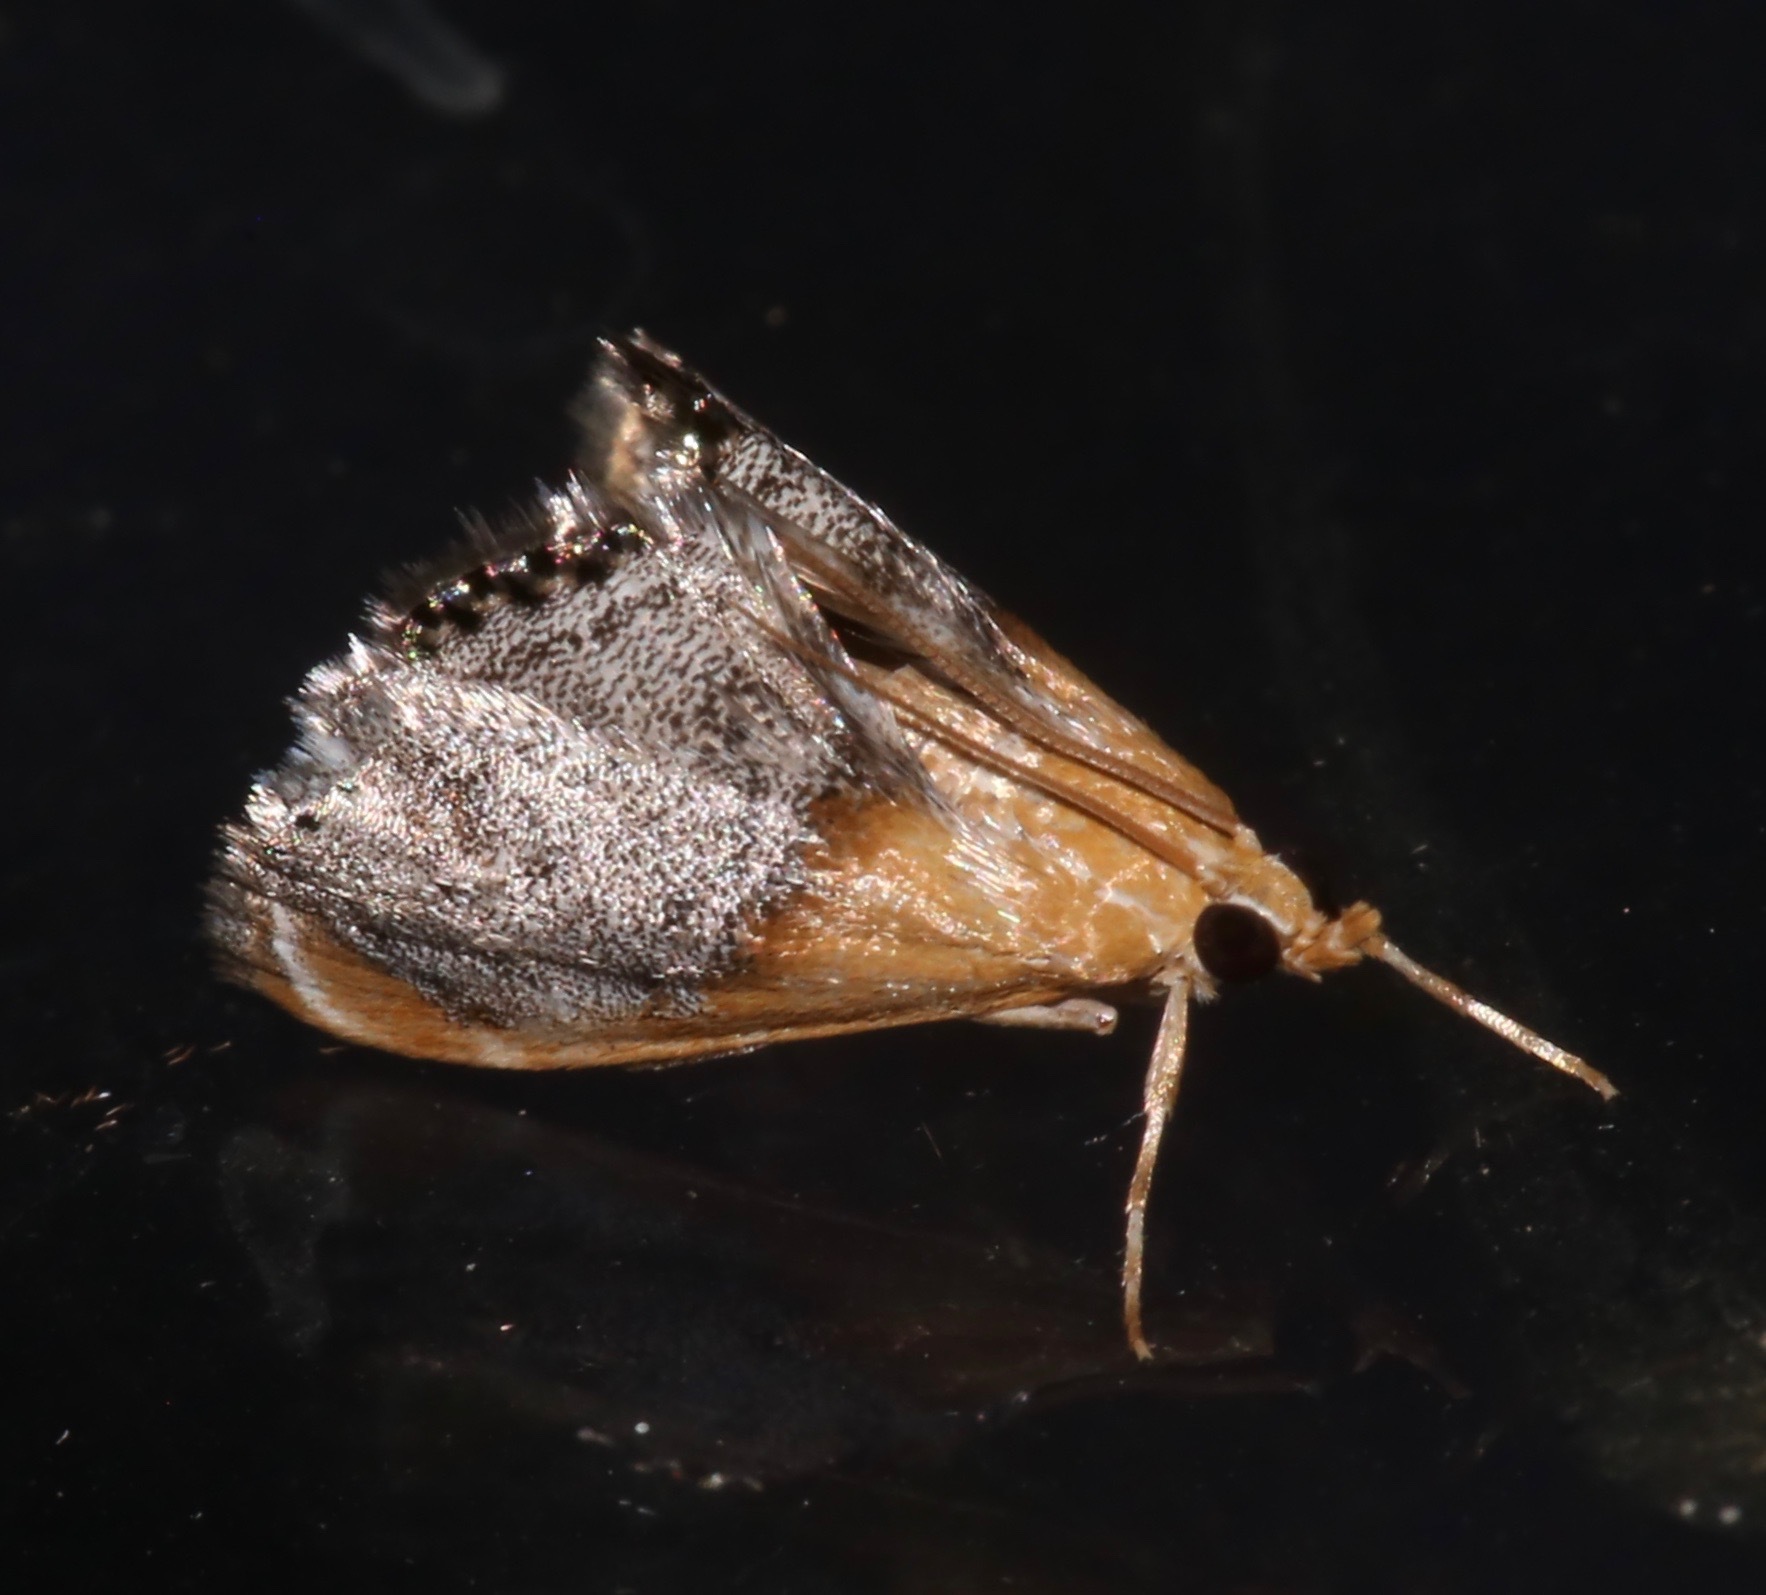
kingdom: Animalia
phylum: Arthropoda
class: Insecta
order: Lepidoptera
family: Crambidae
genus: Chalcoela
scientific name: Chalcoela iphitalis
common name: Sooty-winged chalcoela moth
